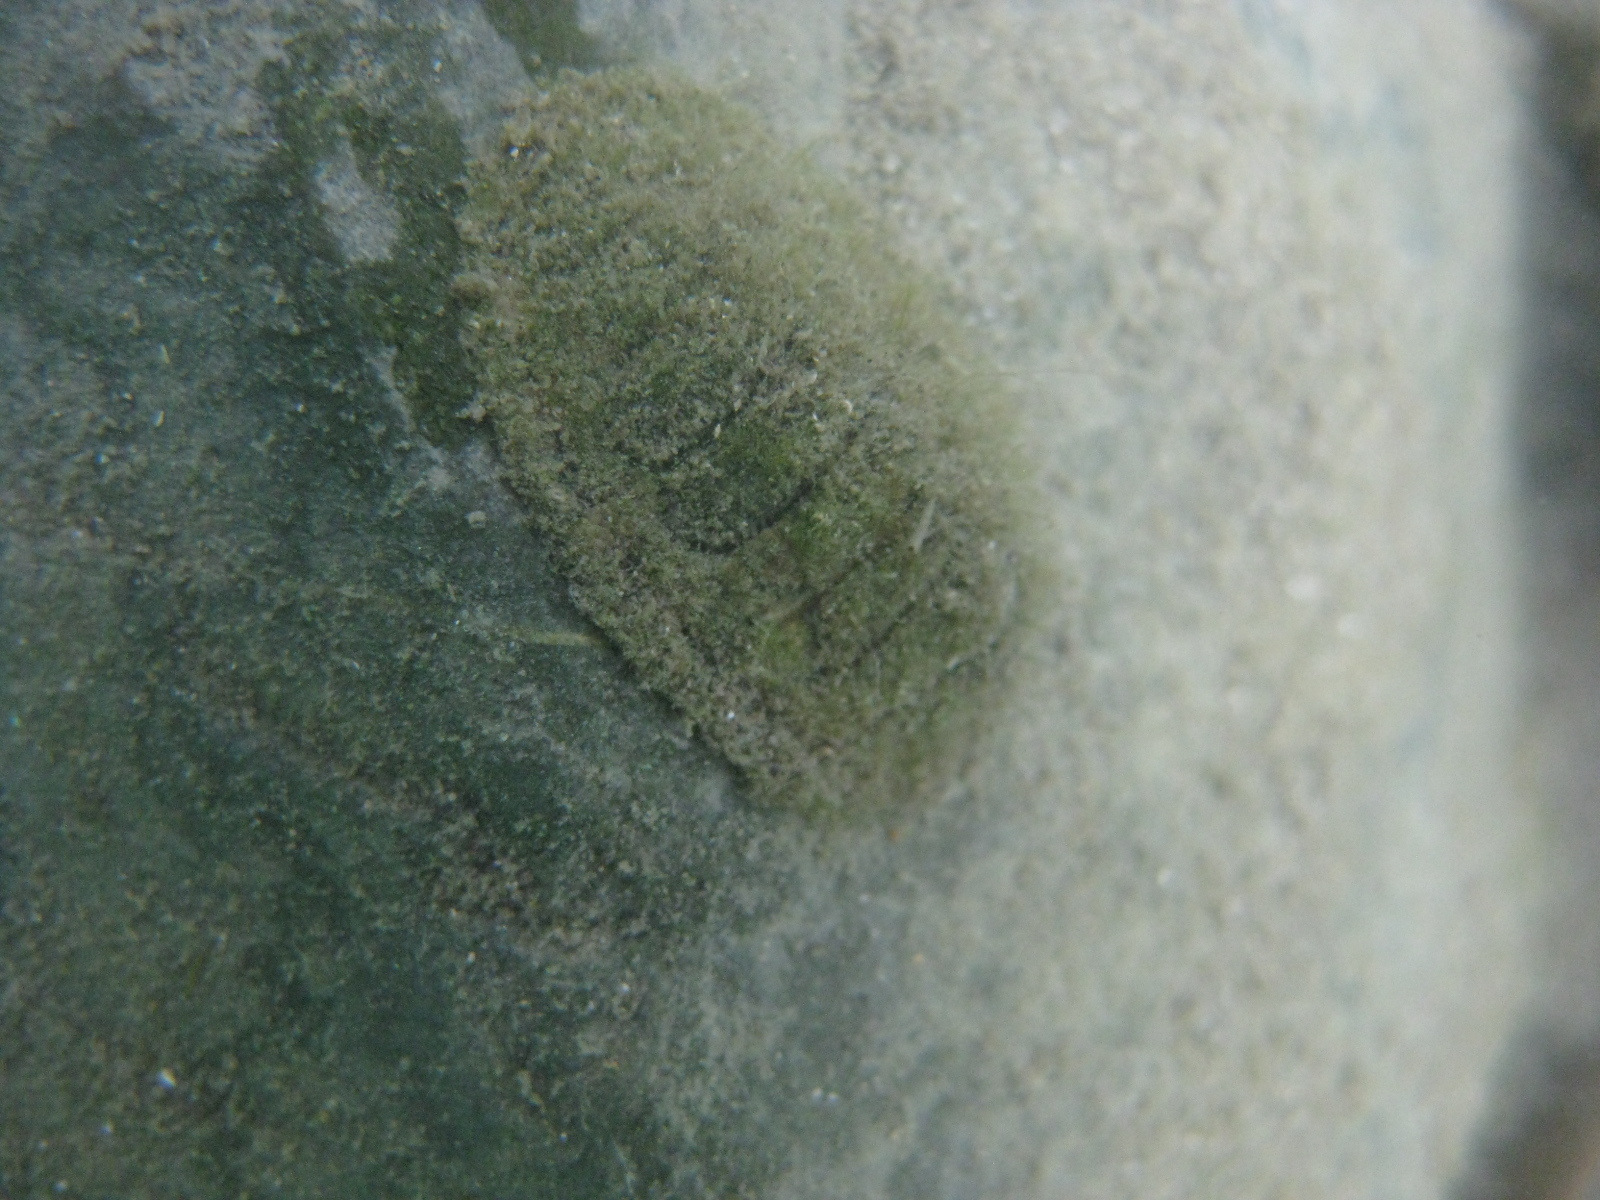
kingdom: Animalia
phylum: Mollusca
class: Polyplacophora
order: Chitonida
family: Chitonidae
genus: Sypharochiton
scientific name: Sypharochiton pelliserpentis
